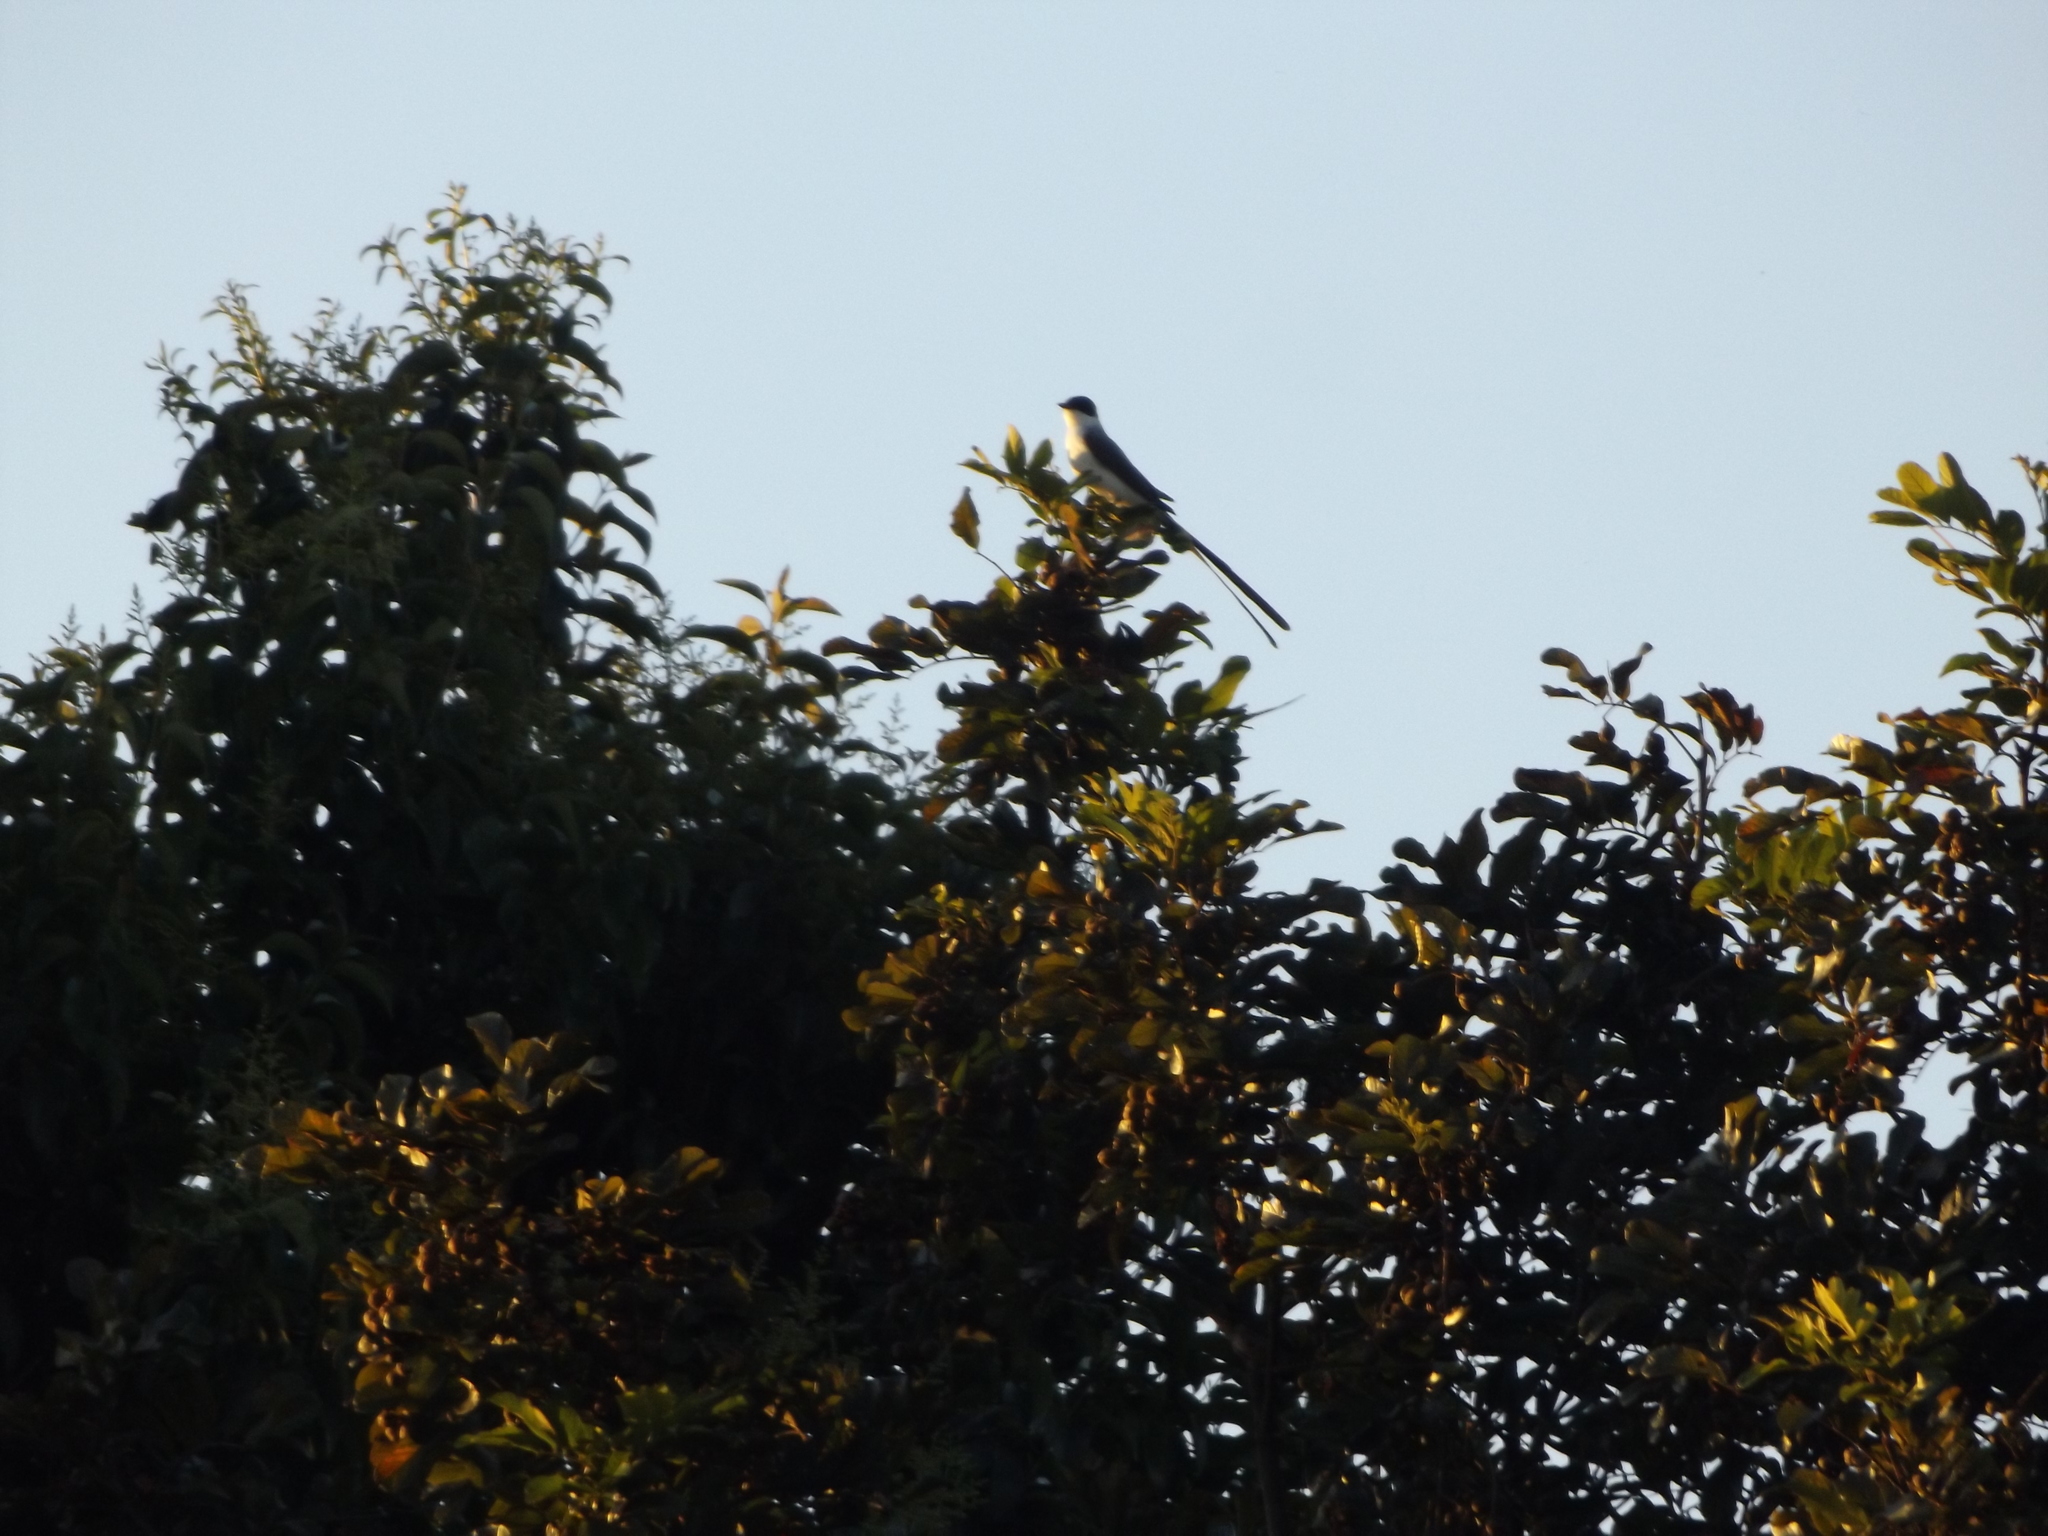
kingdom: Animalia
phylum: Chordata
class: Aves
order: Passeriformes
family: Tyrannidae
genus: Tyrannus
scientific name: Tyrannus savana
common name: Fork-tailed flycatcher
